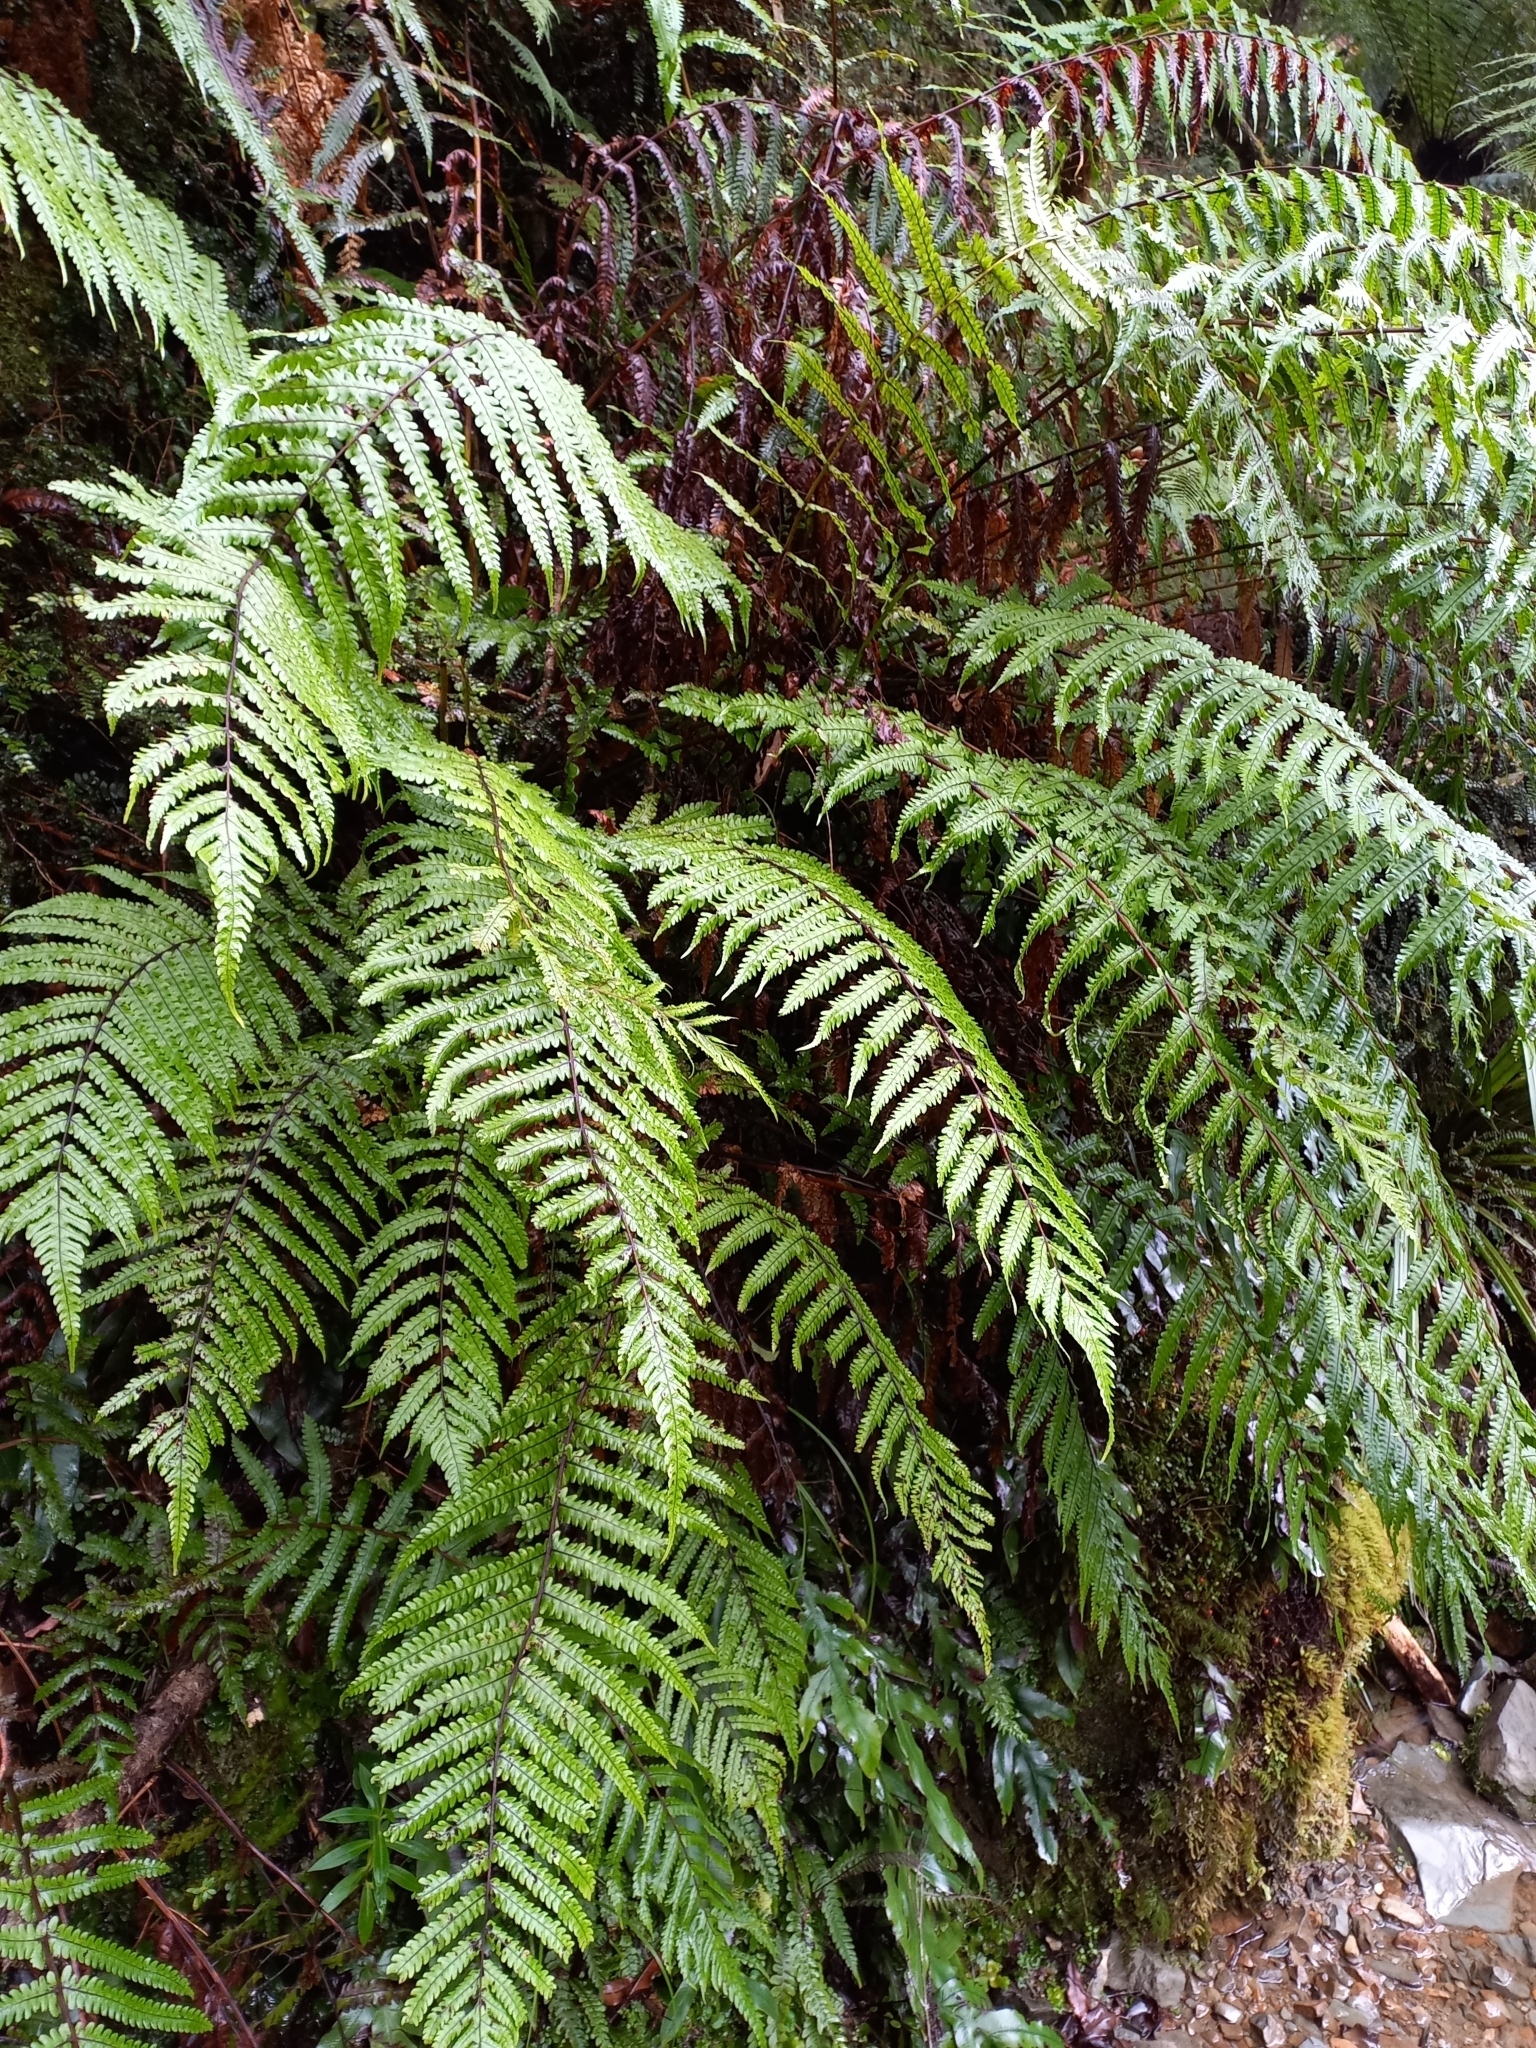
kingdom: Plantae
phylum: Tracheophyta
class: Polypodiopsida
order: Polypodiales
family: Thelypteridaceae
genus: Pakau
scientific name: Pakau pennigera
